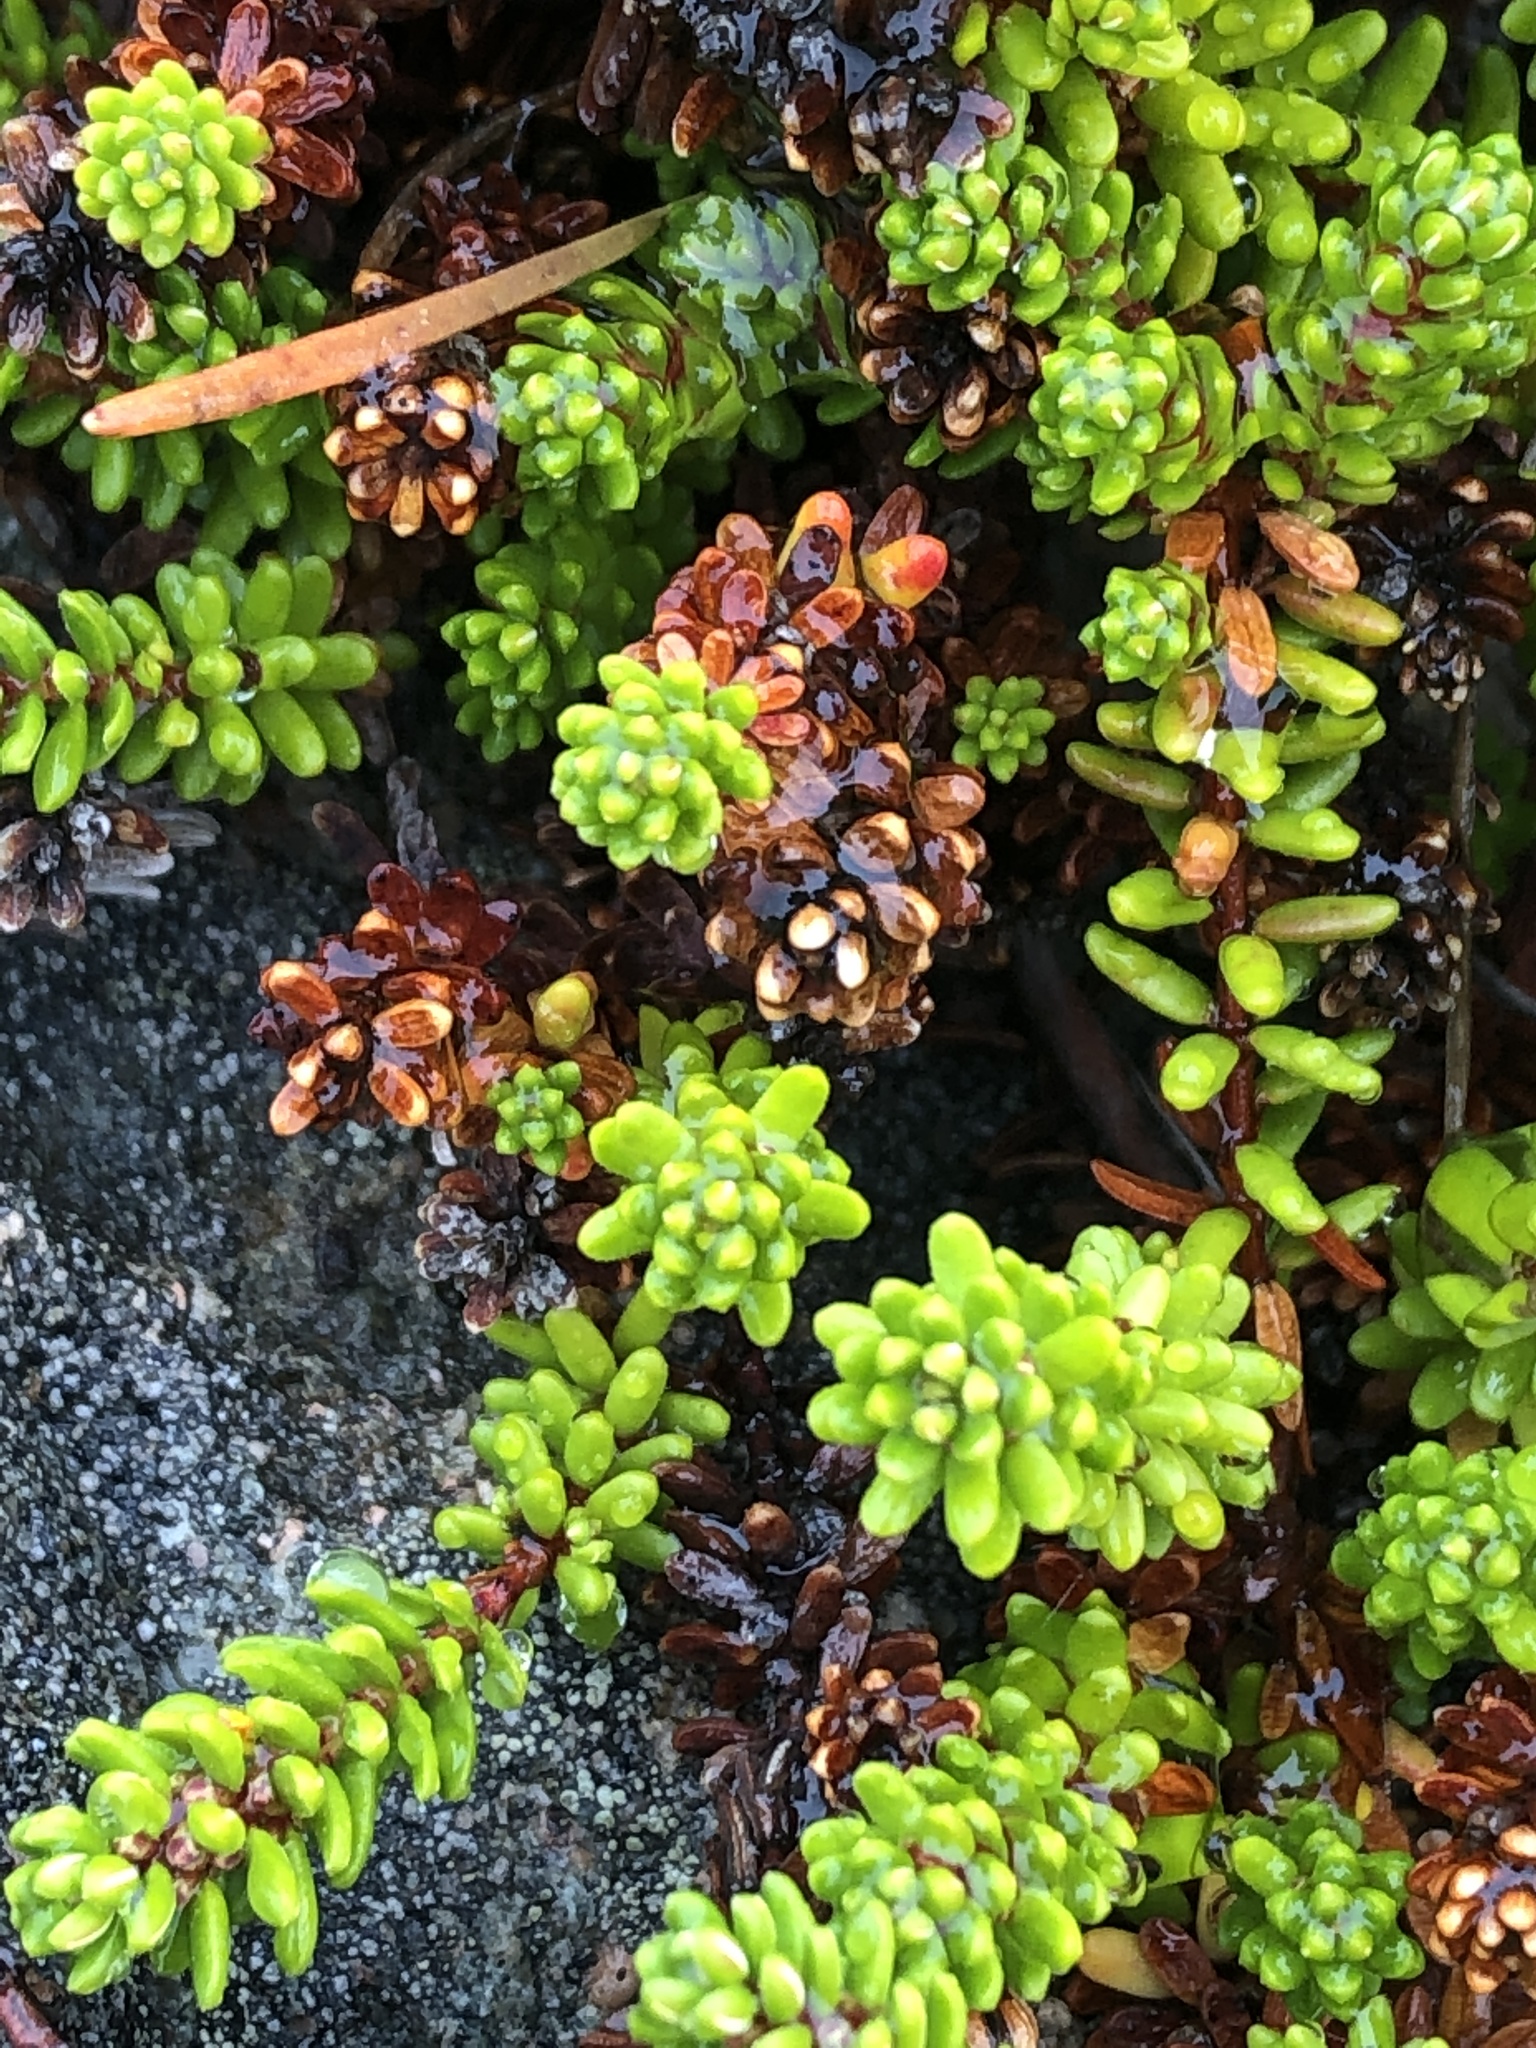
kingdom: Plantae
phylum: Tracheophyta
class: Magnoliopsida
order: Ericales
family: Ericaceae
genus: Empetrum
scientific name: Empetrum nigrum
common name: Black crowberry
